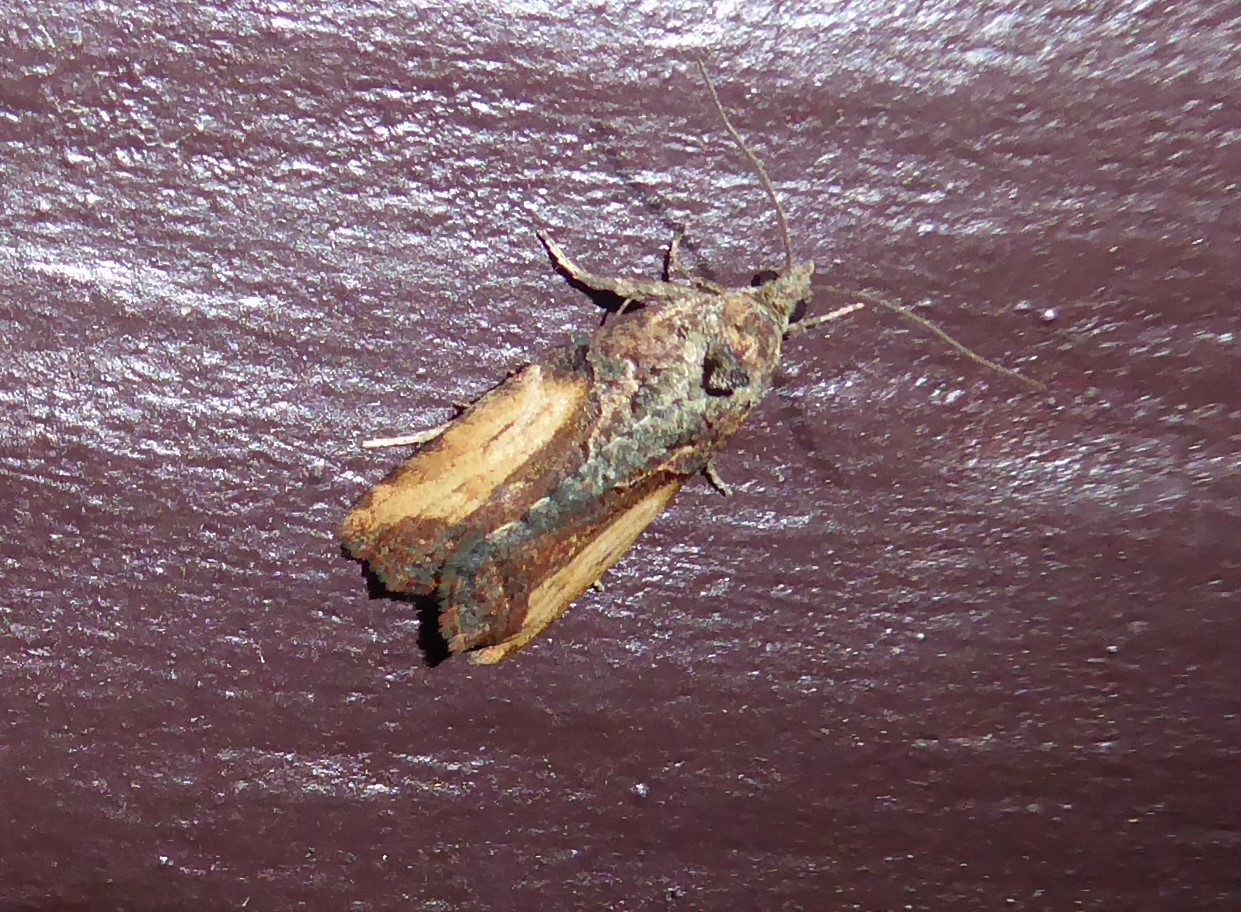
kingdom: Animalia
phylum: Arthropoda
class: Insecta
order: Lepidoptera
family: Tortricidae
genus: Harmologa
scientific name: Harmologa scoliastis
